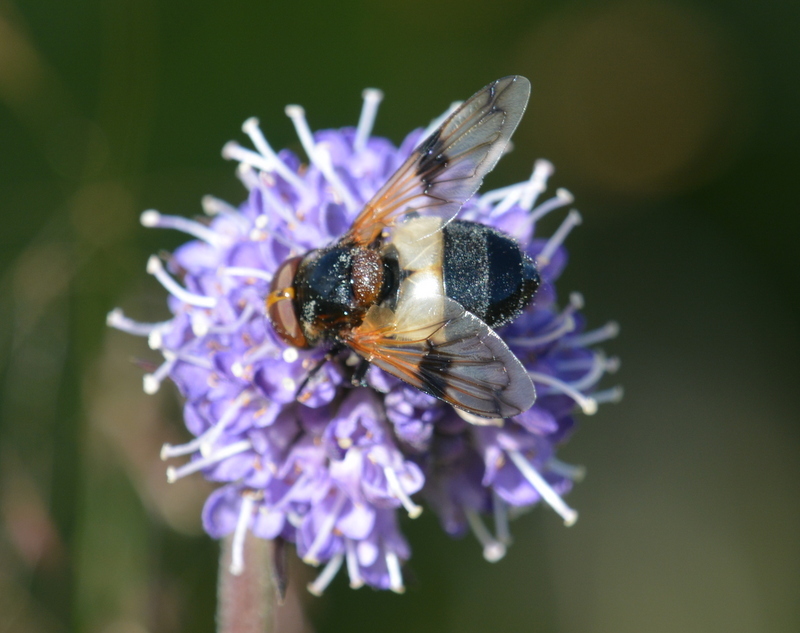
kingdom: Animalia
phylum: Arthropoda
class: Insecta
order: Diptera
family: Syrphidae
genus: Volucella
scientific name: Volucella pellucens
